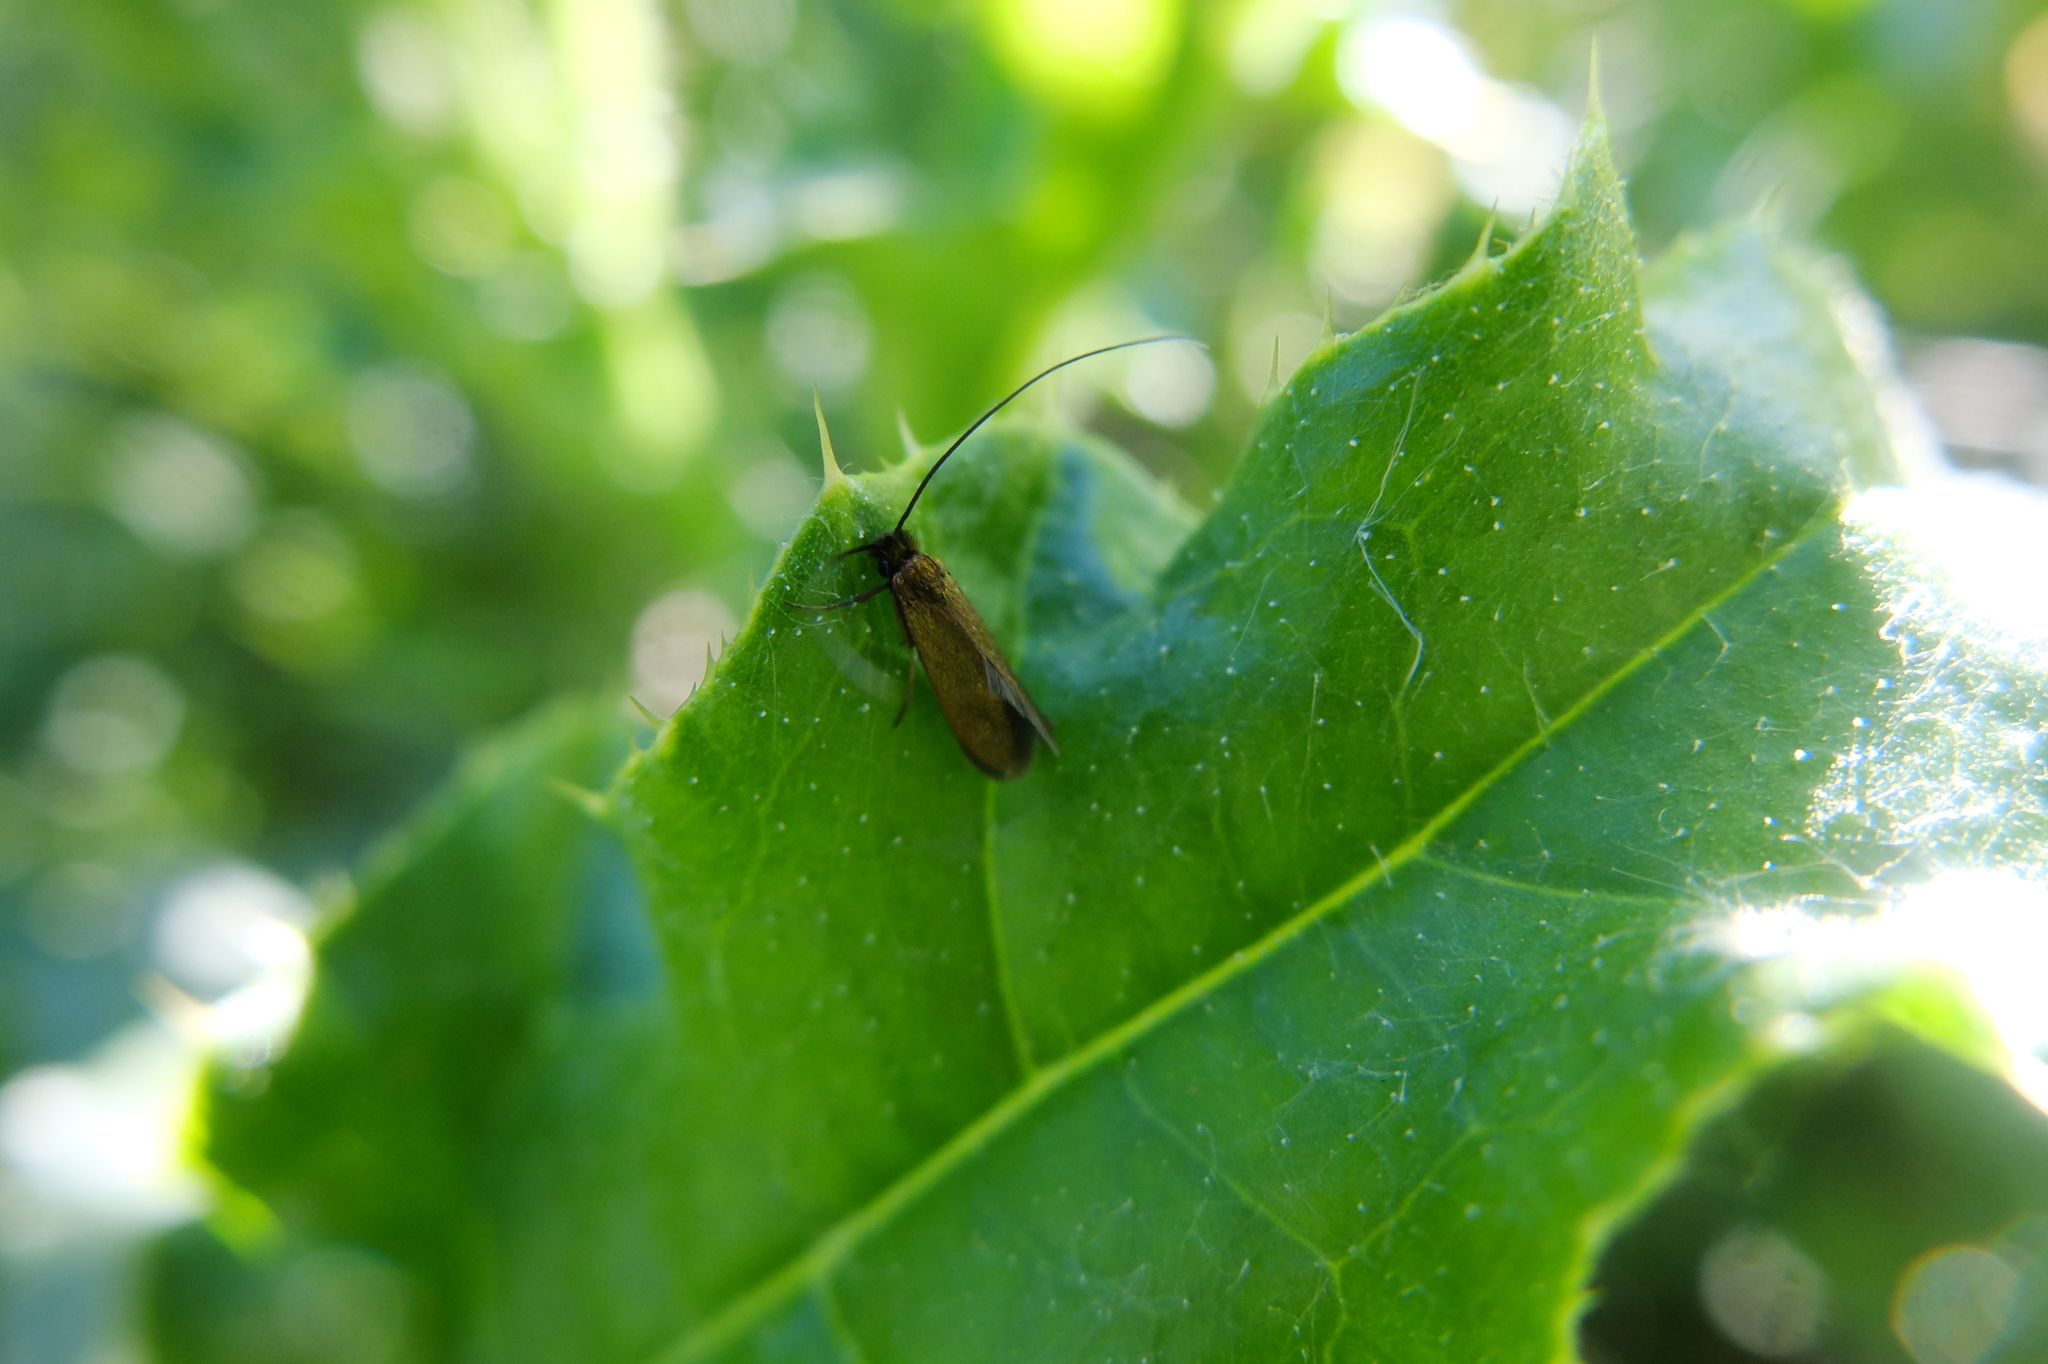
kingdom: Animalia
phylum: Arthropoda
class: Insecta
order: Lepidoptera
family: Adelidae
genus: Cauchas
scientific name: Cauchas rufimitrella
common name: Meadow long-horn
